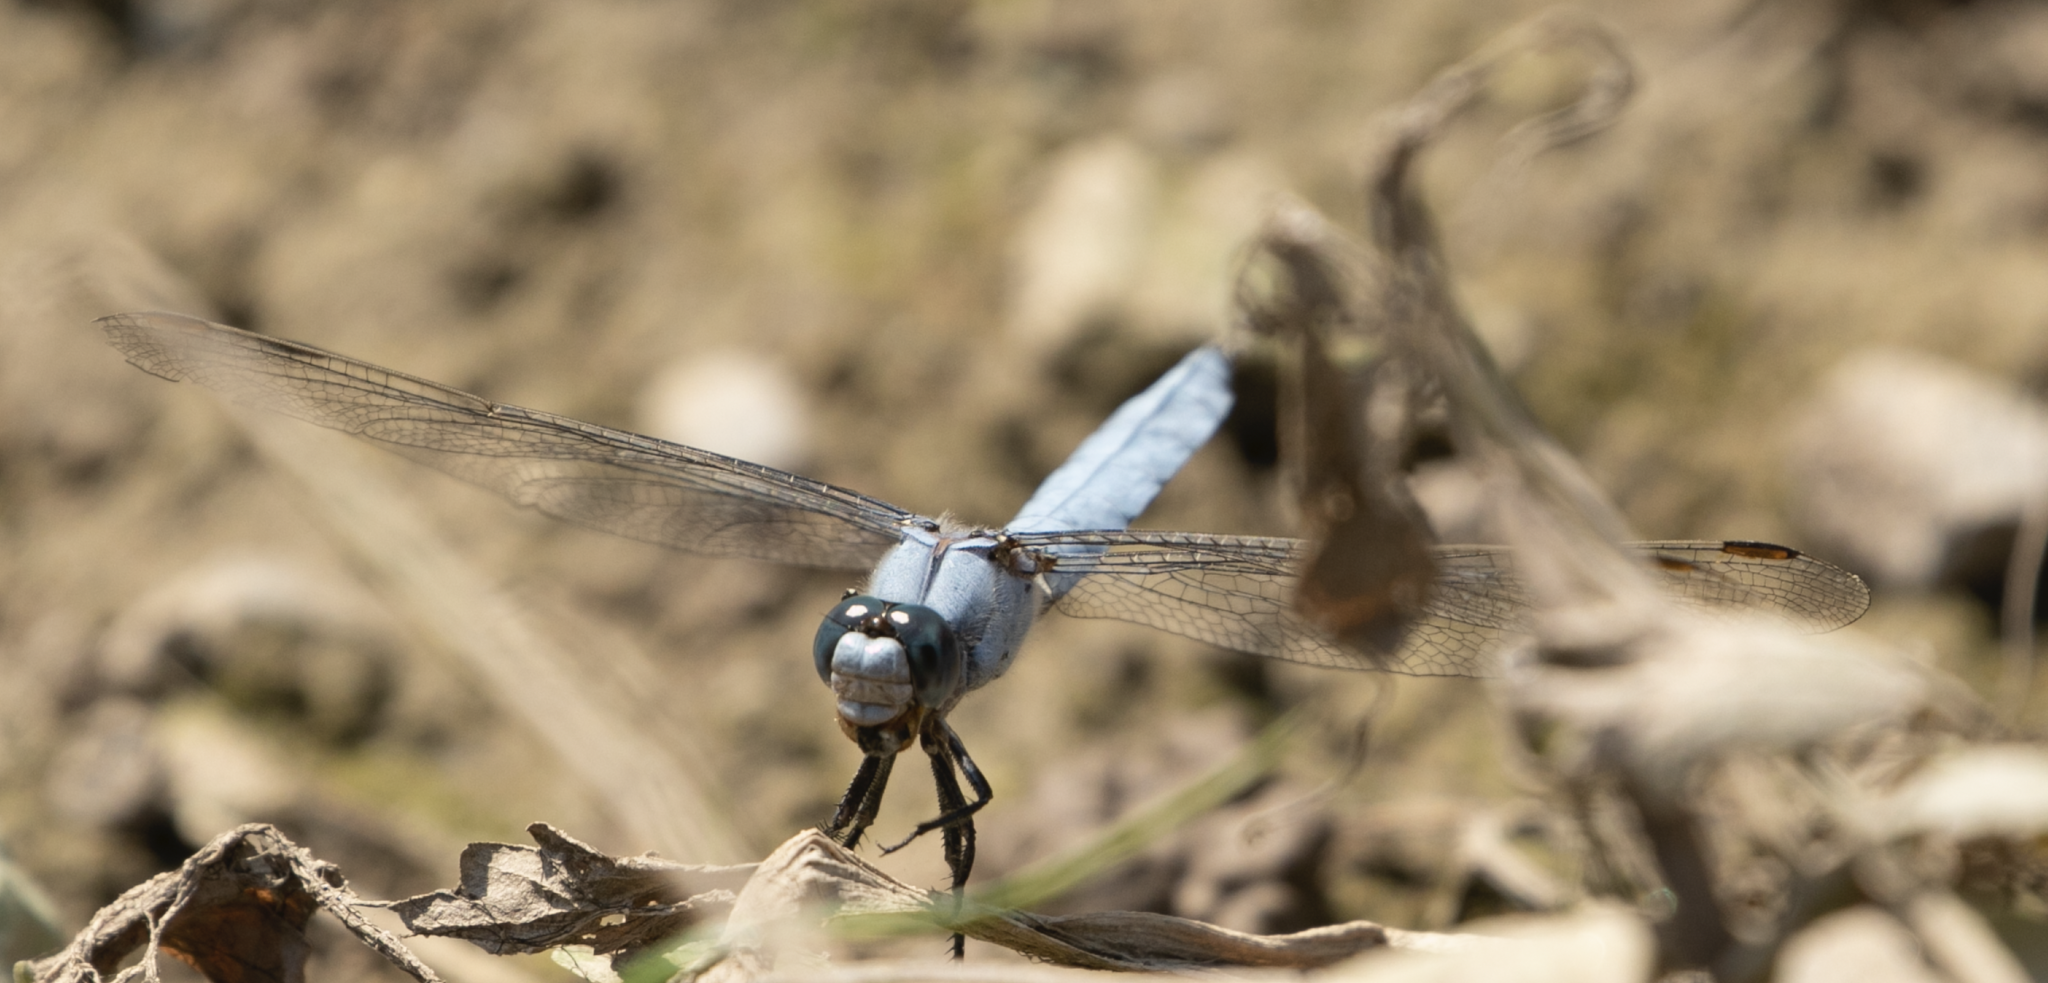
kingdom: Animalia
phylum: Arthropoda
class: Insecta
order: Odonata
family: Libellulidae
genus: Orthetrum
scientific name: Orthetrum brunneum
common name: Southern skimmer
